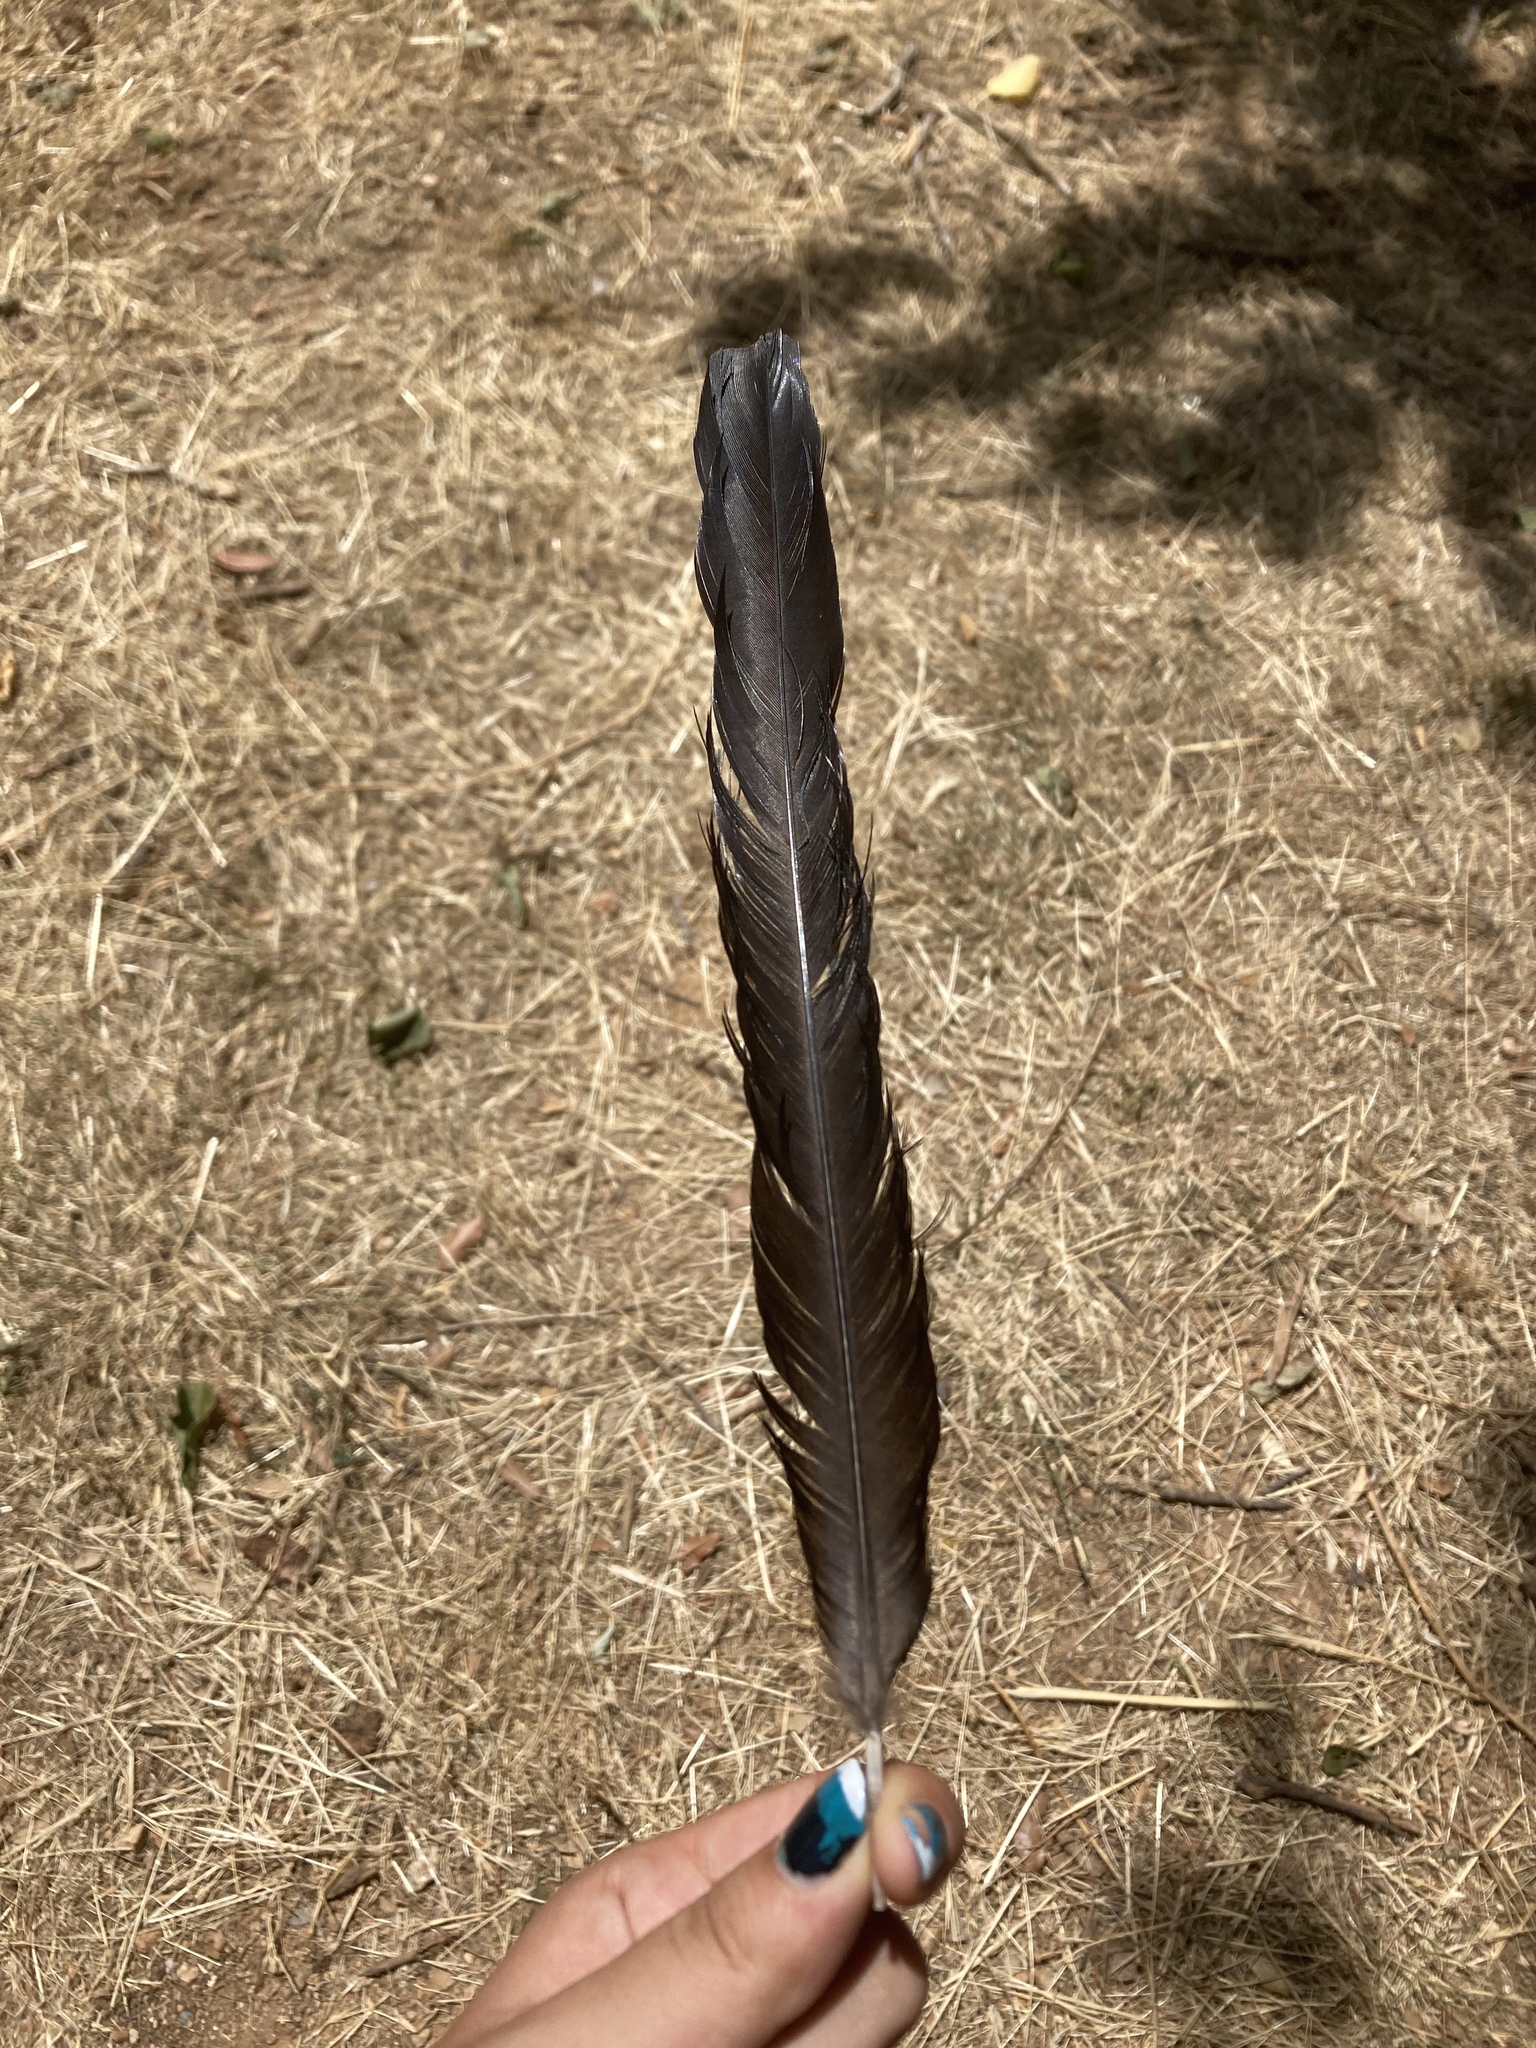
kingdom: Animalia
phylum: Chordata
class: Aves
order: Passeriformes
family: Corvidae
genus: Pica
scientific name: Pica pica
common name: Eurasian magpie
